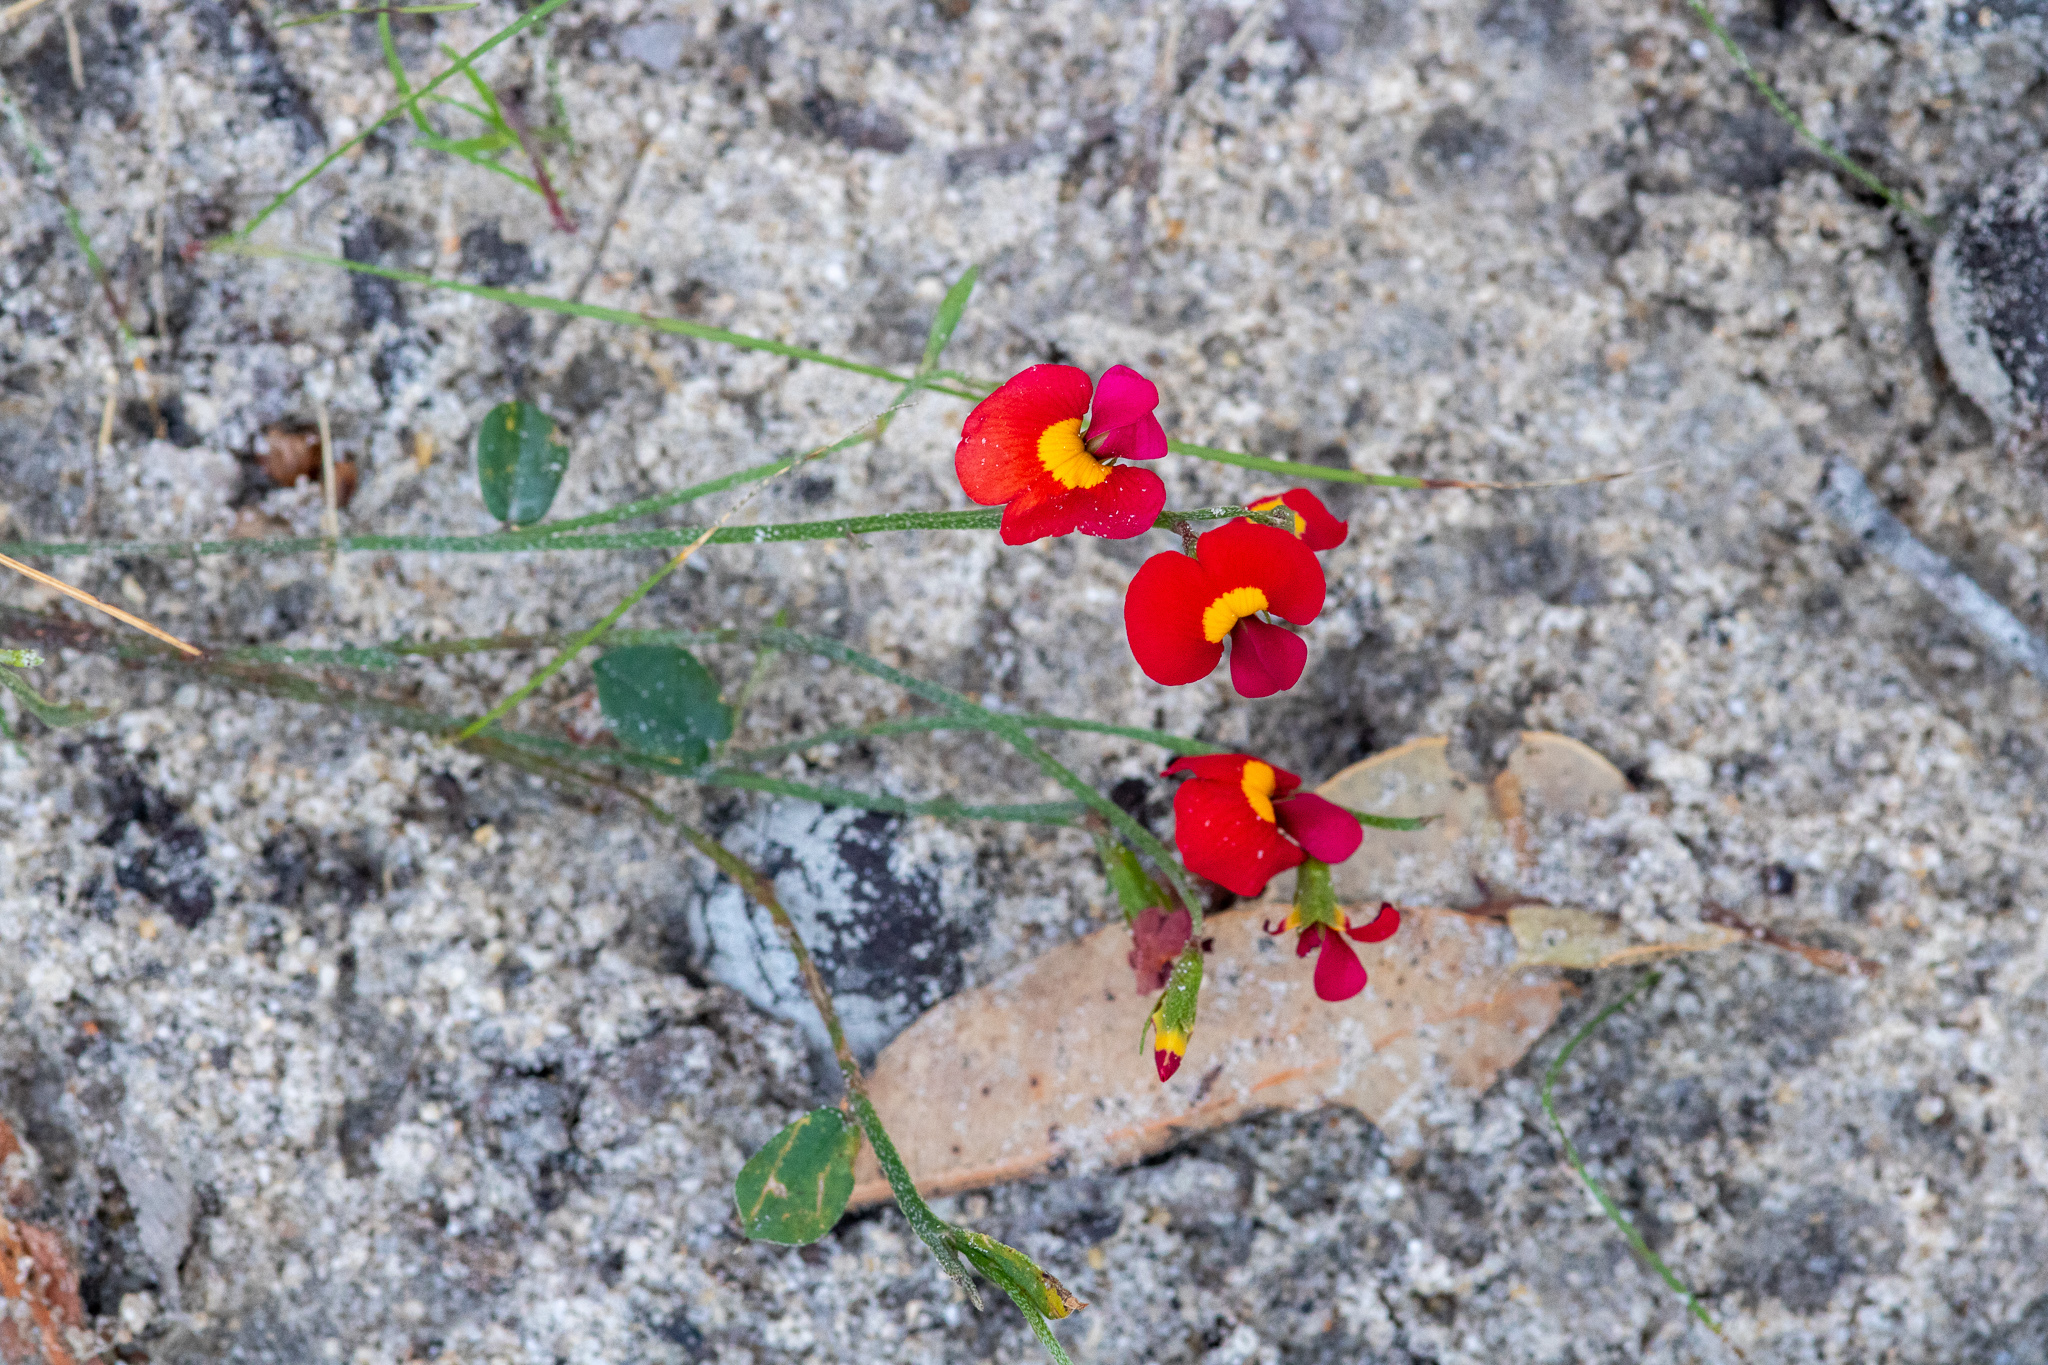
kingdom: Plantae
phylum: Tracheophyta
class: Magnoliopsida
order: Fabales
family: Fabaceae
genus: Chorizema
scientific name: Chorizema rhombeum
